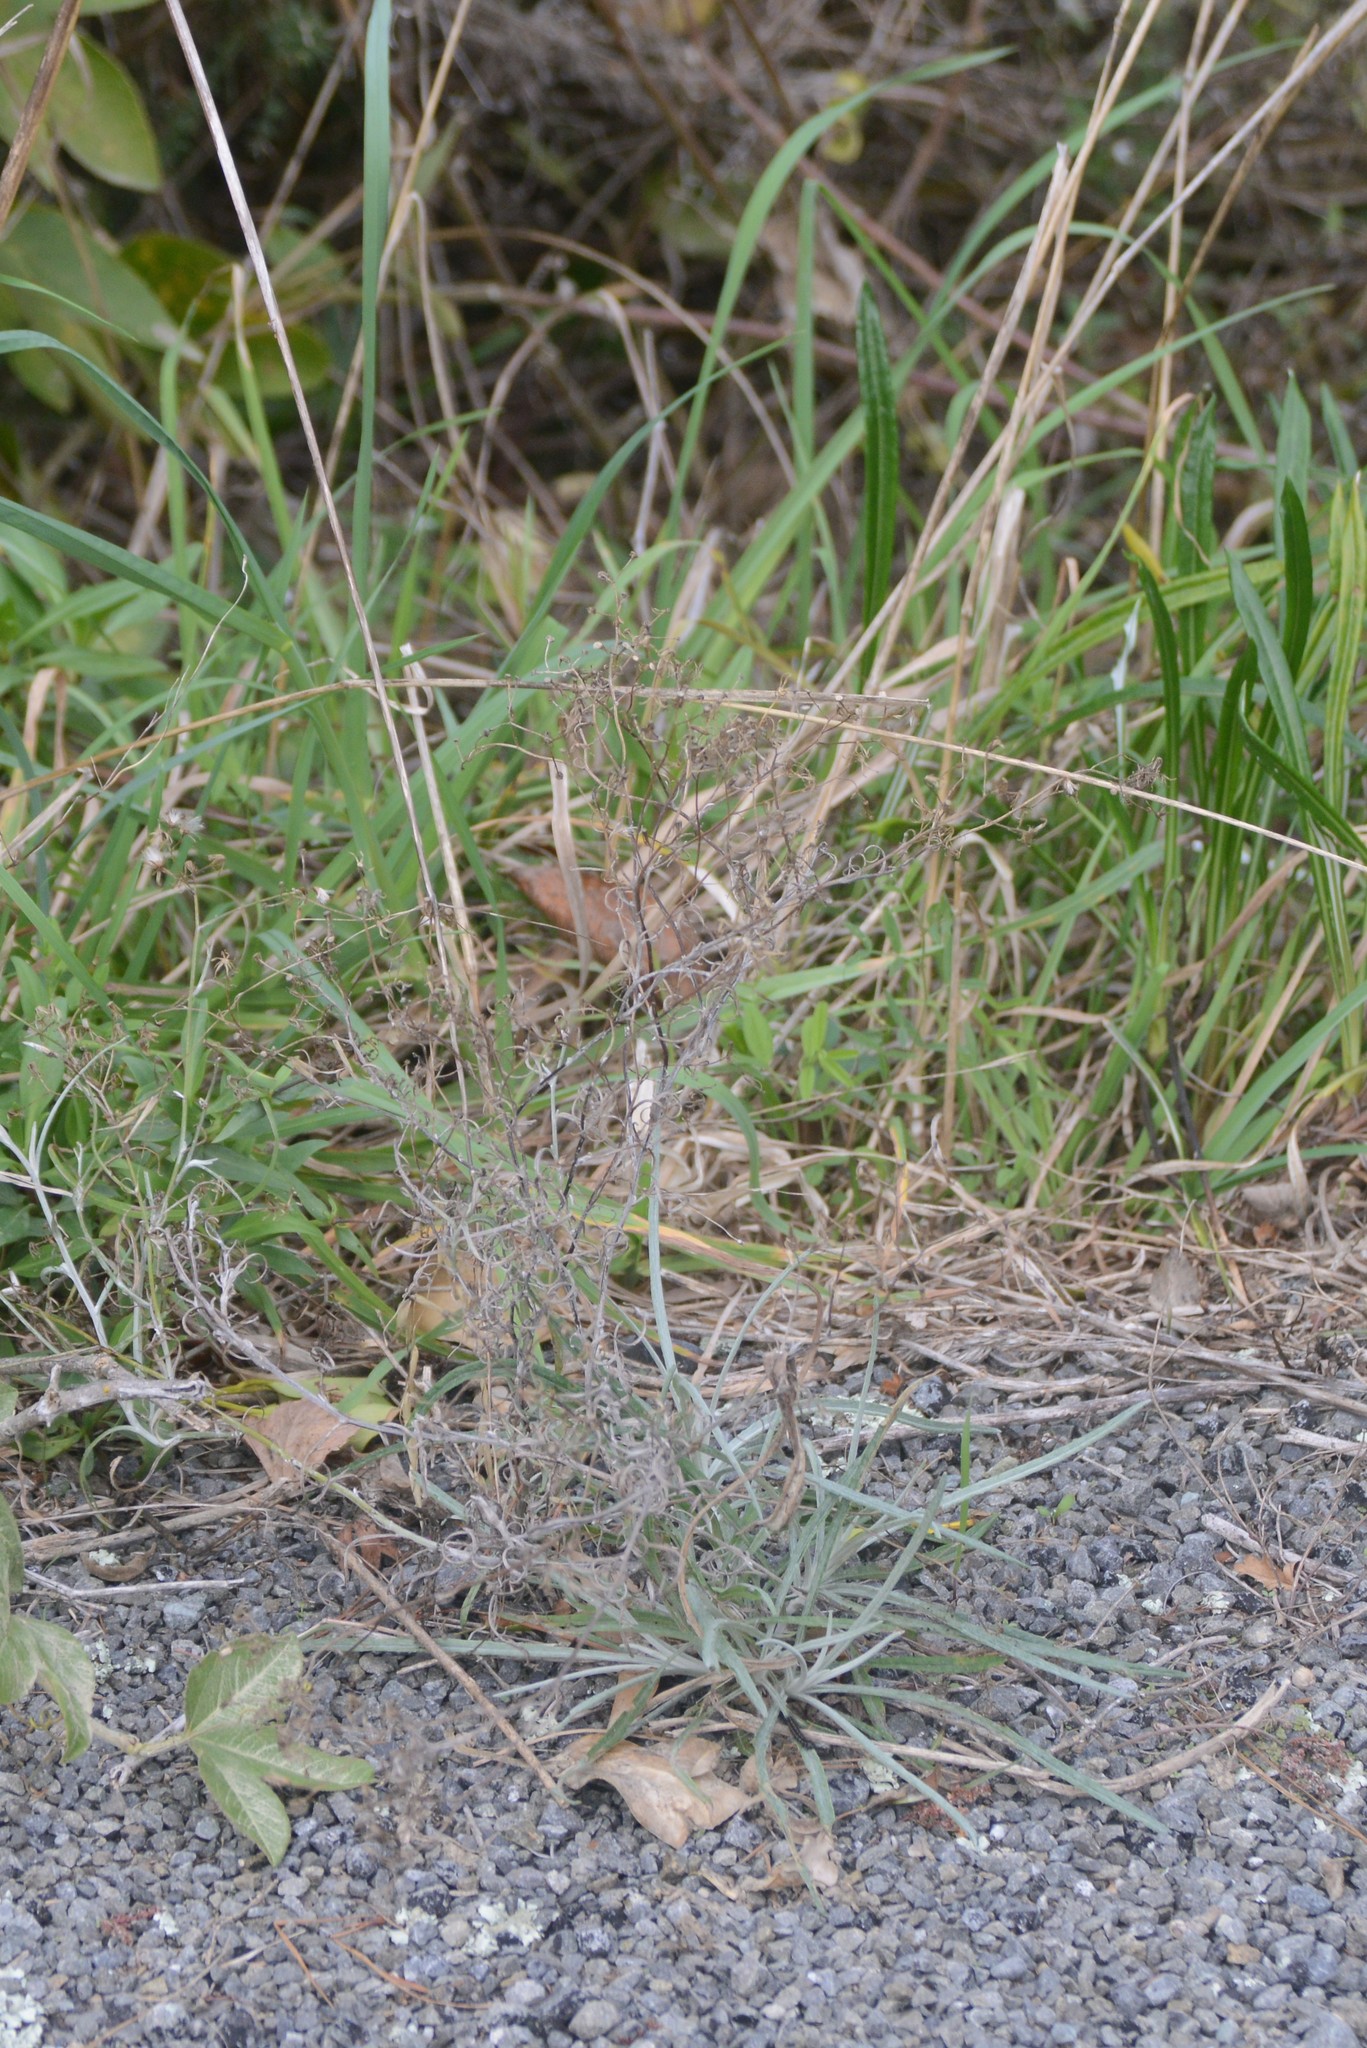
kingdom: Plantae
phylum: Tracheophyta
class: Magnoliopsida
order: Asterales
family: Asteraceae
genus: Senecio
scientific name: Senecio quadridentatus
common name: Cotton fireweed
